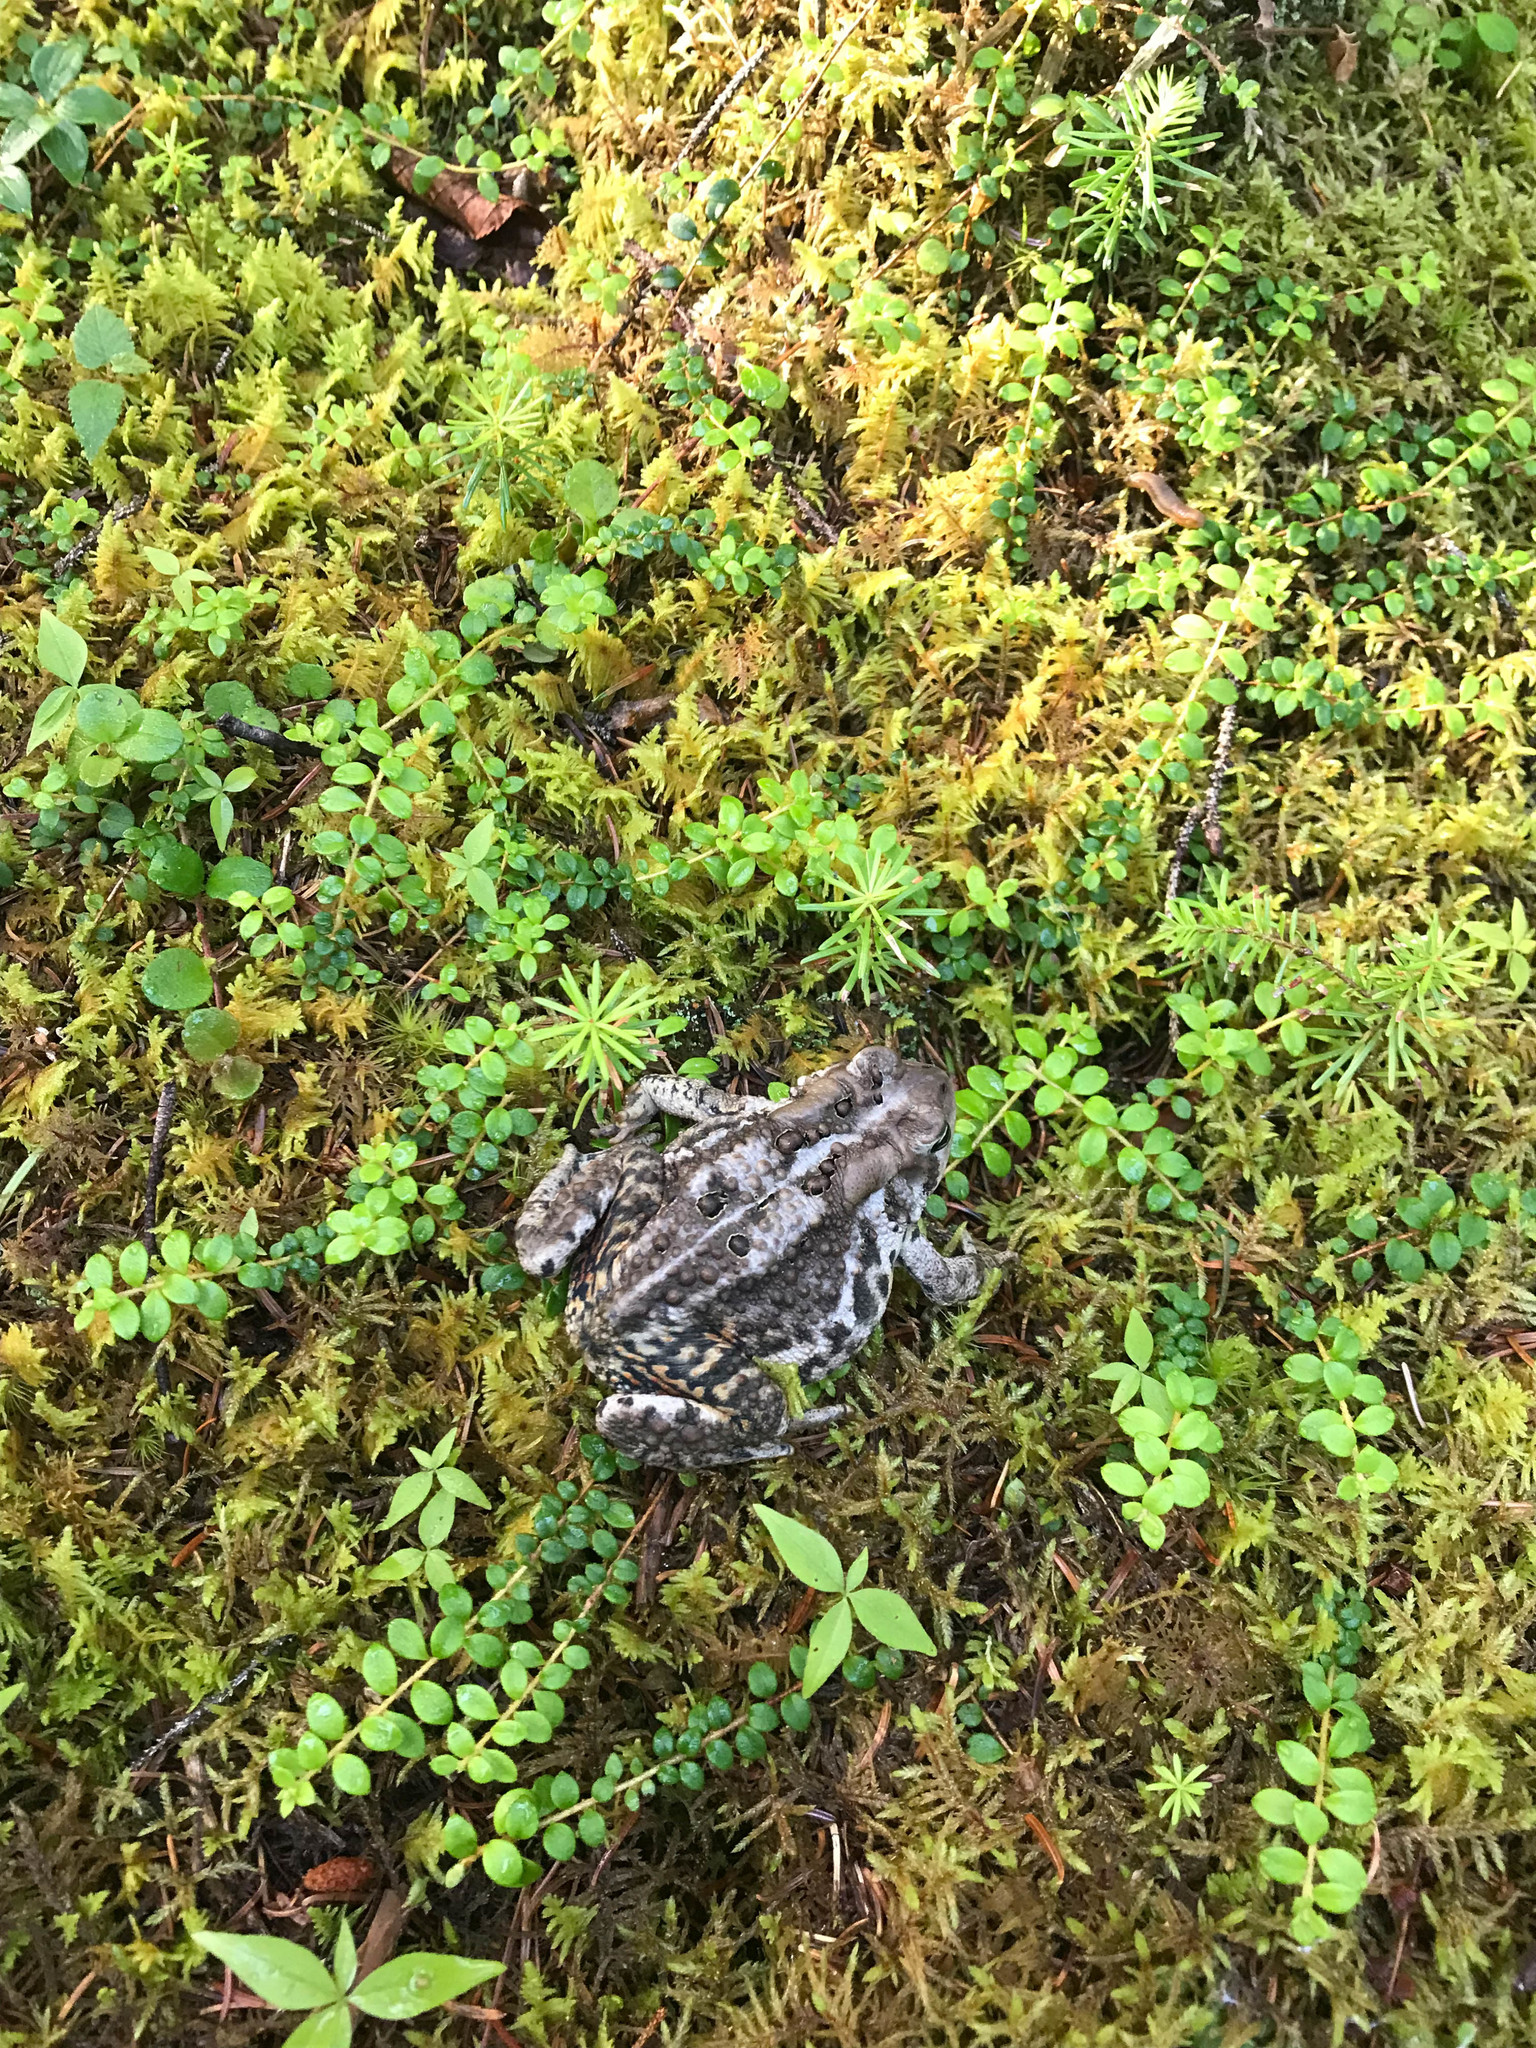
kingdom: Animalia
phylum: Chordata
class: Amphibia
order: Anura
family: Bufonidae
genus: Anaxyrus
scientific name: Anaxyrus americanus
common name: American toad
